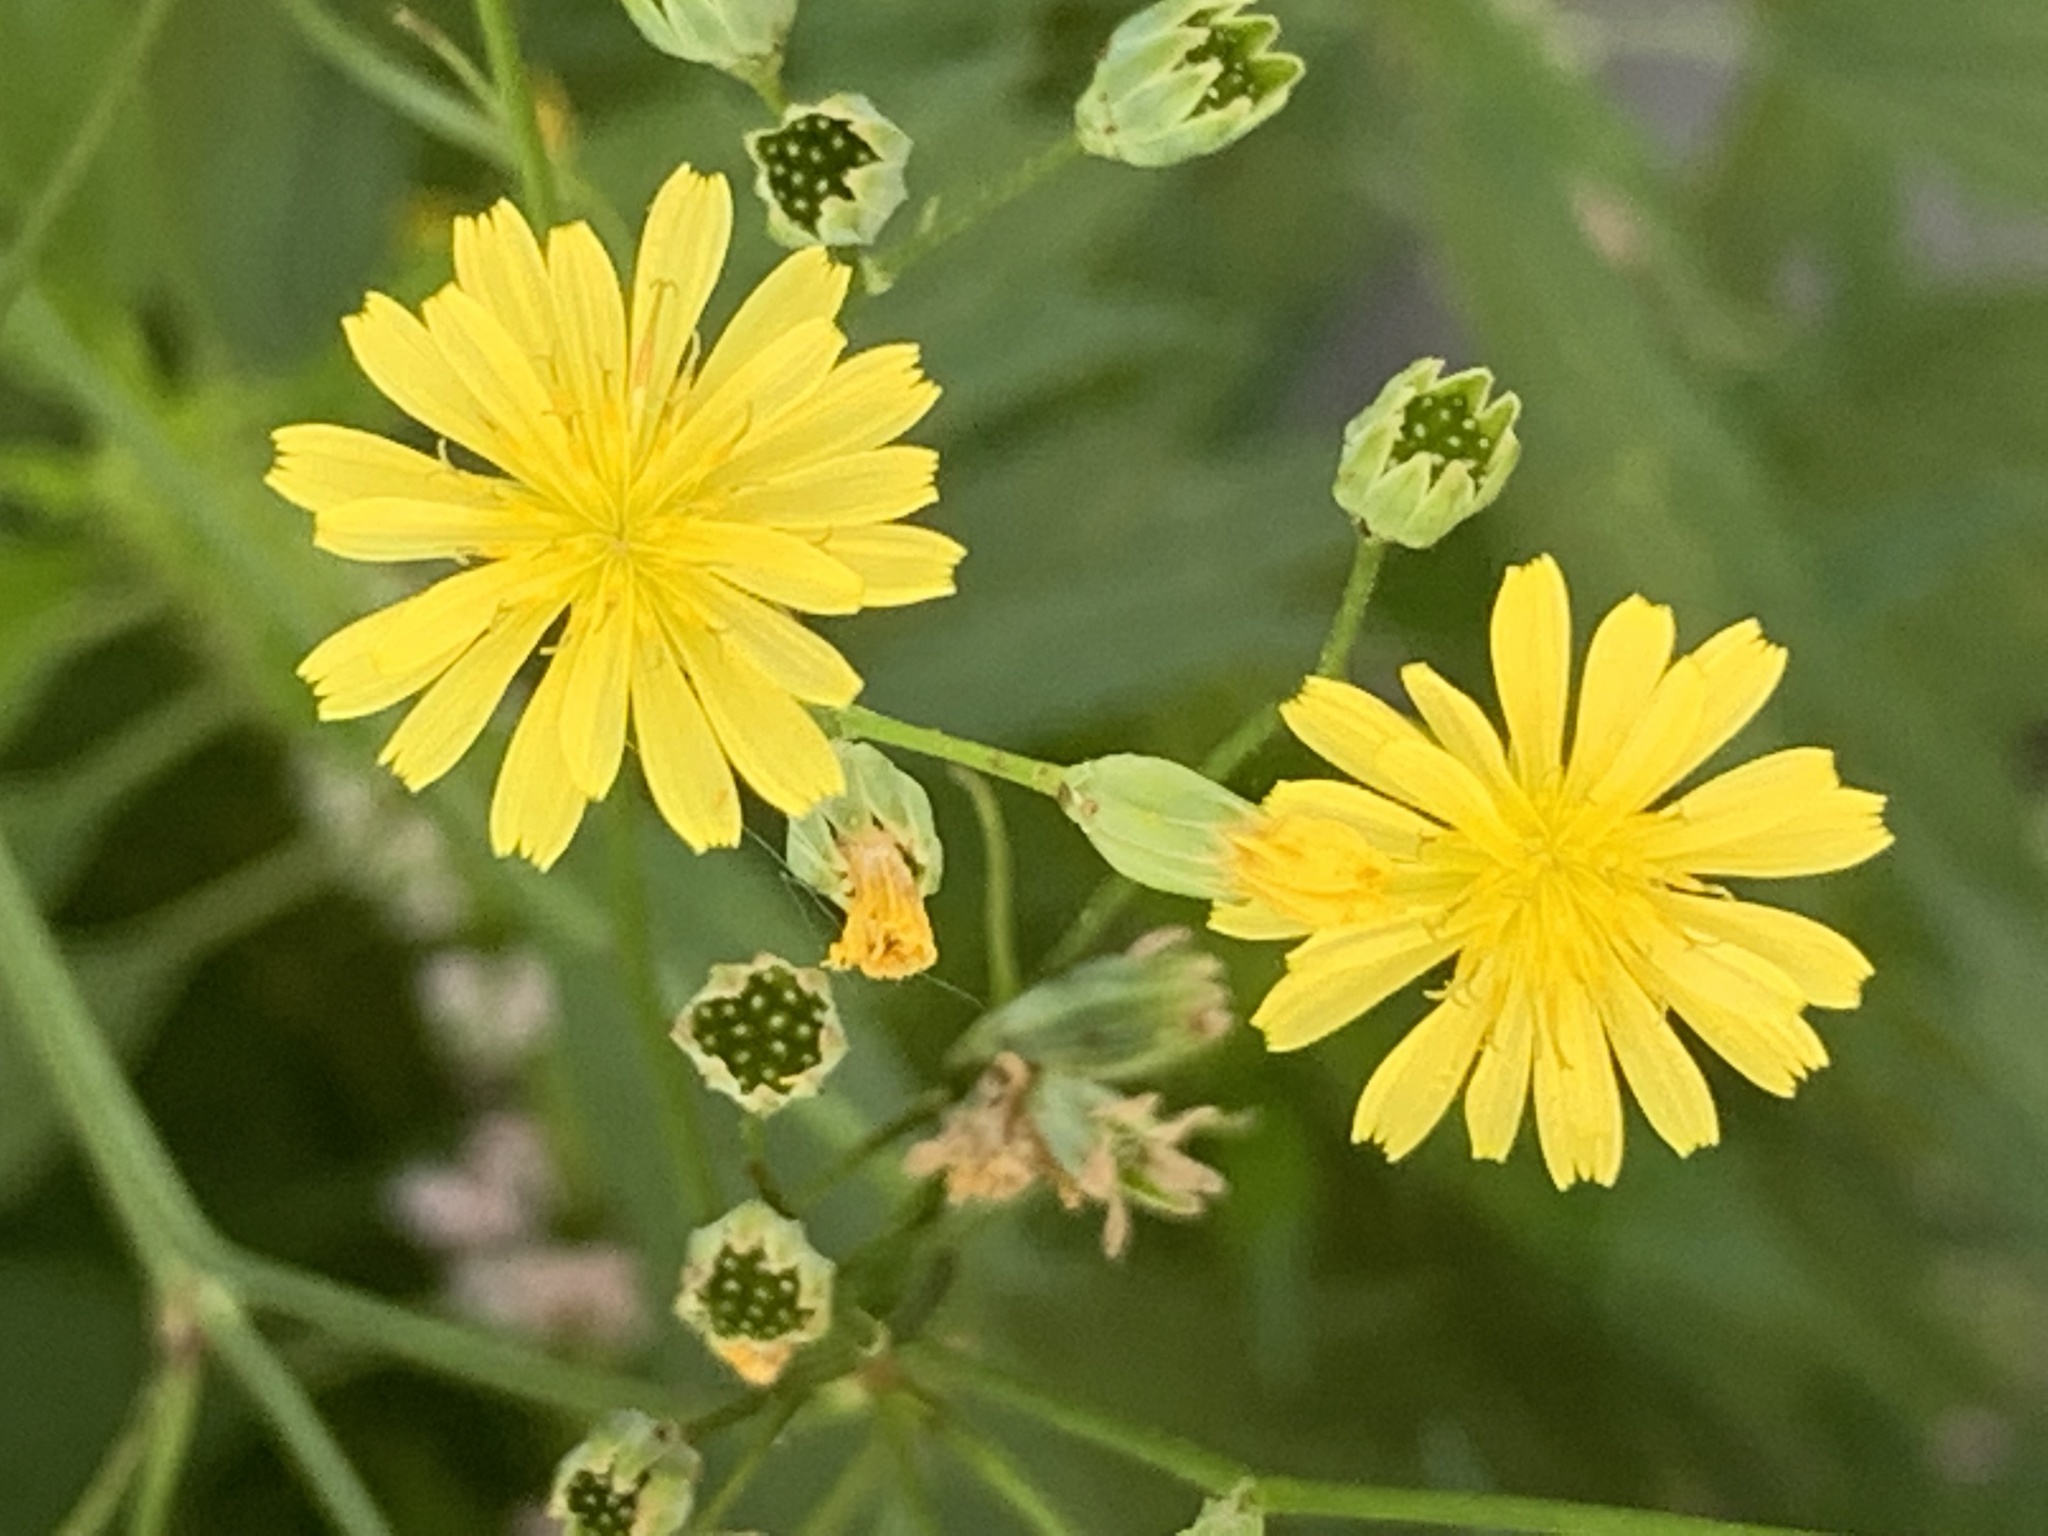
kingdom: Plantae
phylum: Tracheophyta
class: Magnoliopsida
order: Asterales
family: Asteraceae
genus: Lapsana
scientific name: Lapsana communis
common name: Nipplewort
